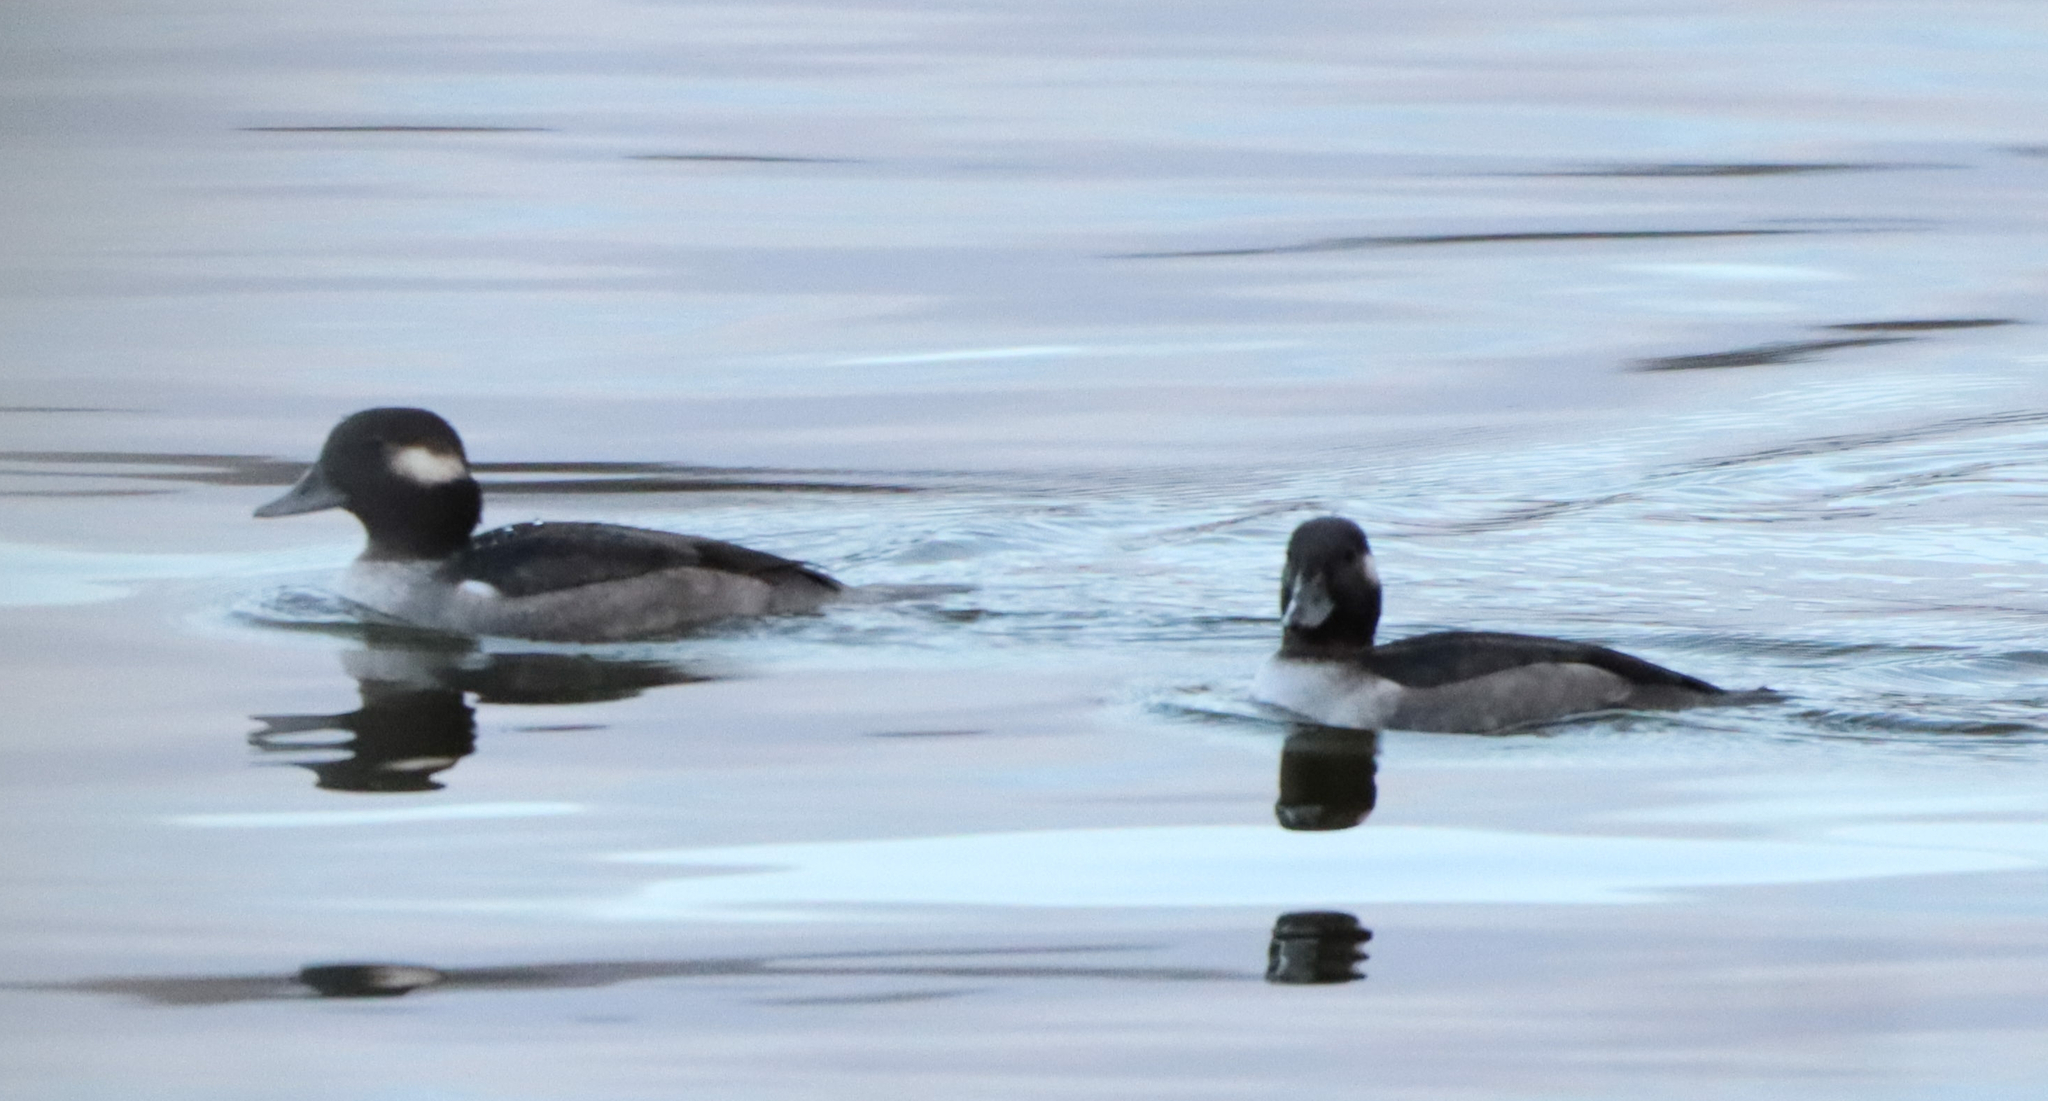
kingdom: Animalia
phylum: Chordata
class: Aves
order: Anseriformes
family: Anatidae
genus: Bucephala
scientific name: Bucephala albeola
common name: Bufflehead
